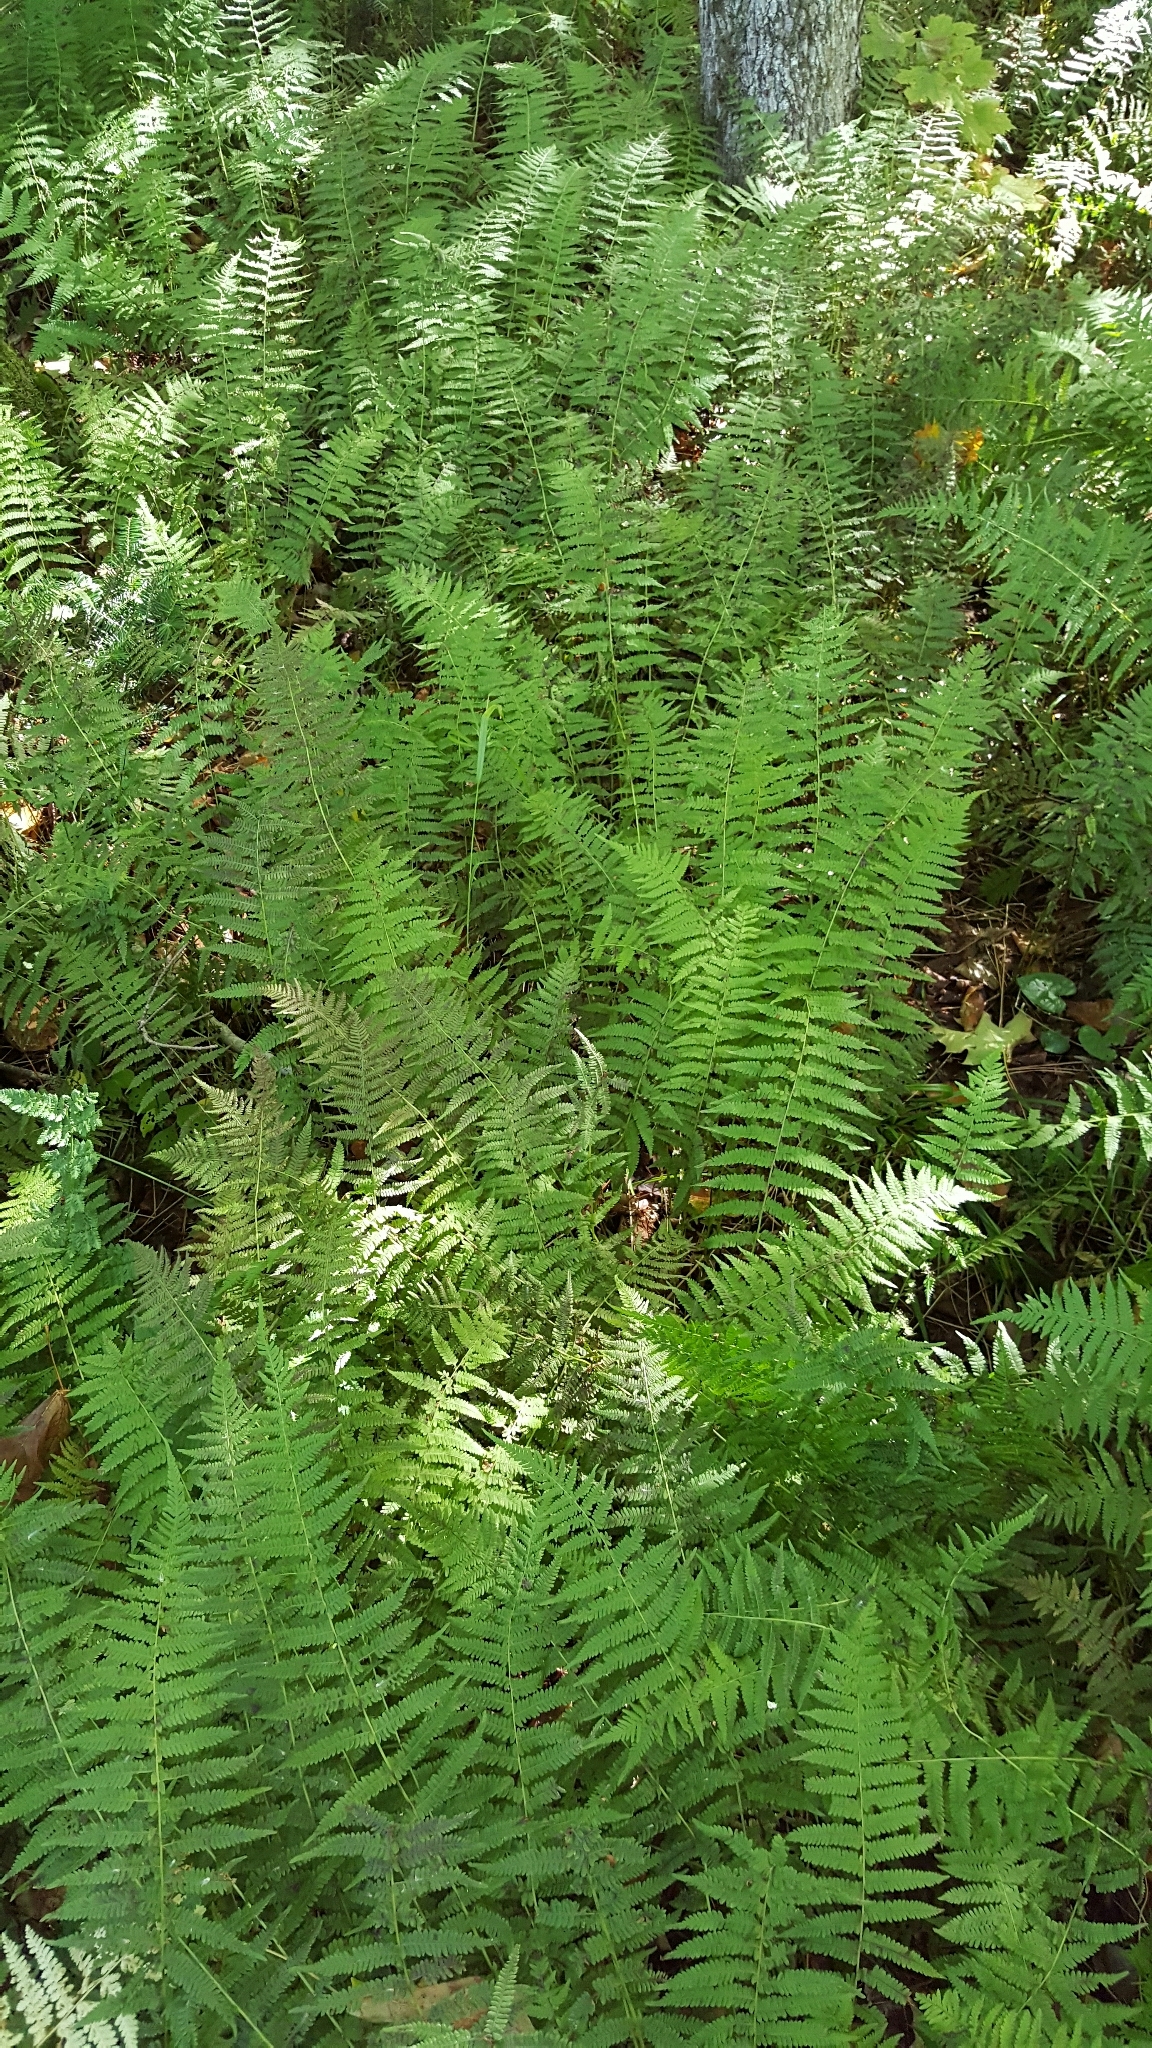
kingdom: Plantae
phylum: Tracheophyta
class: Polypodiopsida
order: Polypodiales
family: Dennstaedtiaceae
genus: Sitobolium
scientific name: Sitobolium punctilobum
